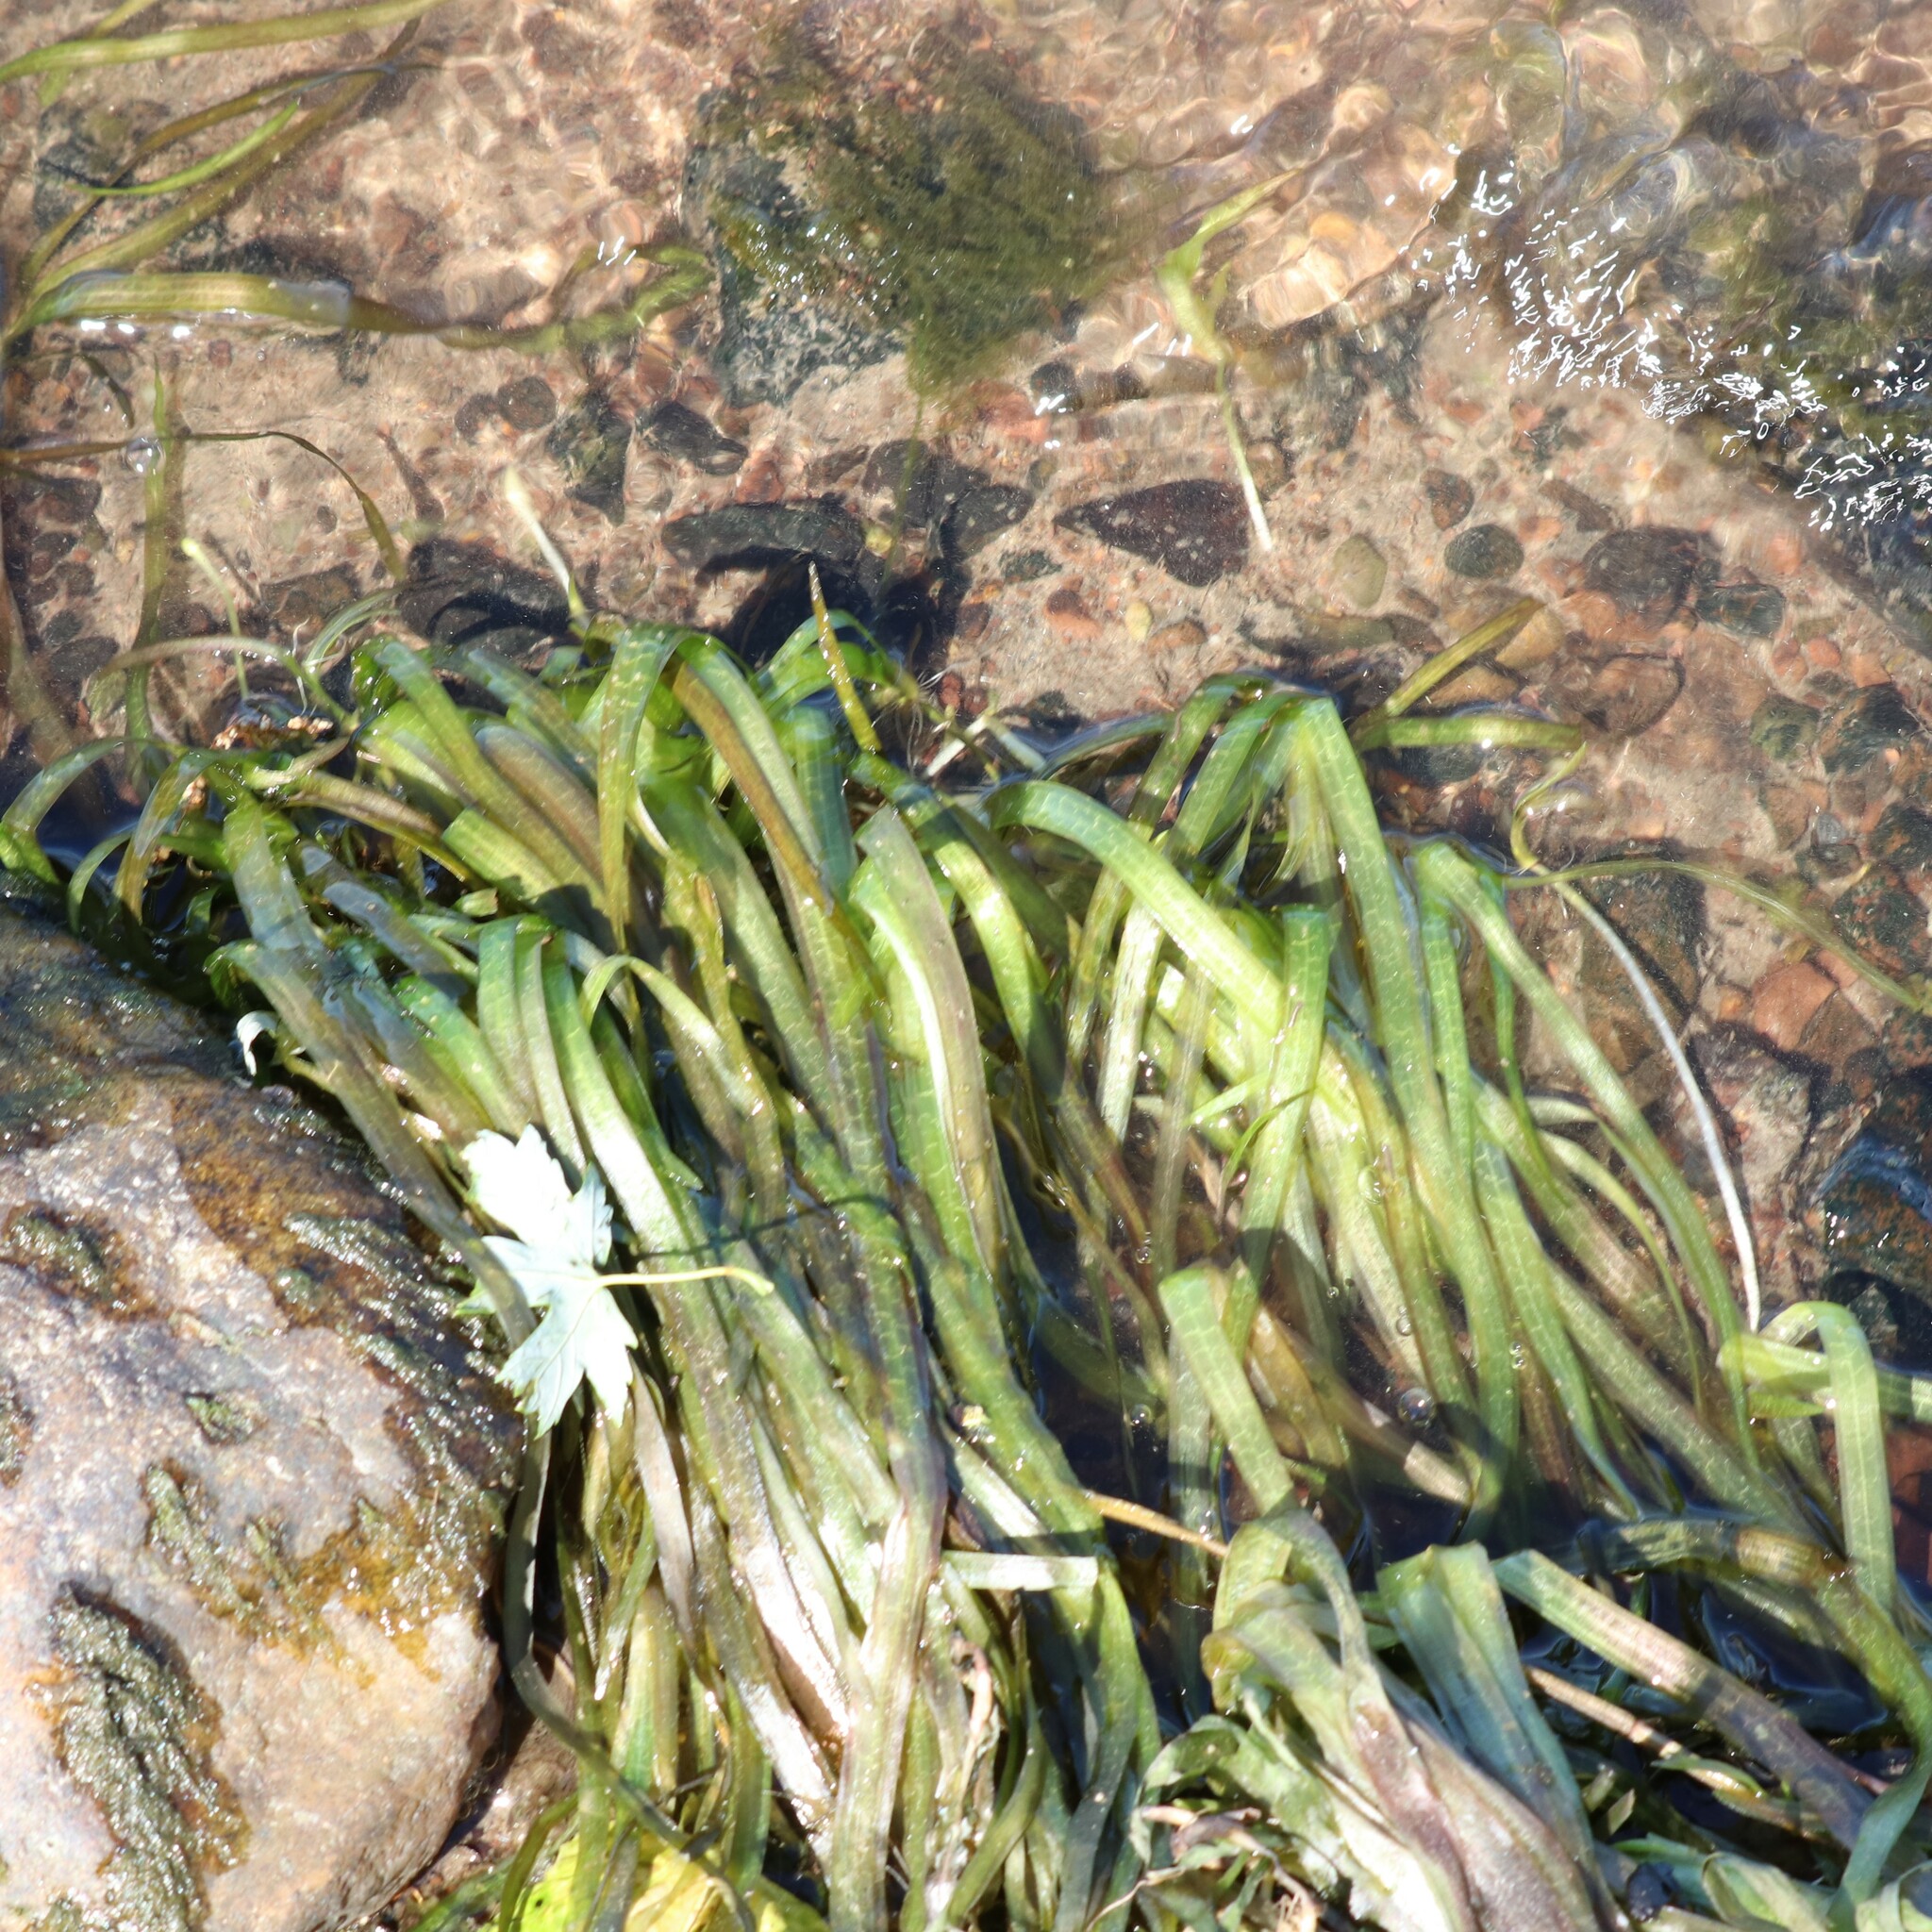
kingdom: Plantae
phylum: Tracheophyta
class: Liliopsida
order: Alismatales
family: Hydrocharitaceae
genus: Vallisneria
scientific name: Vallisneria americana
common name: American eelgrass
